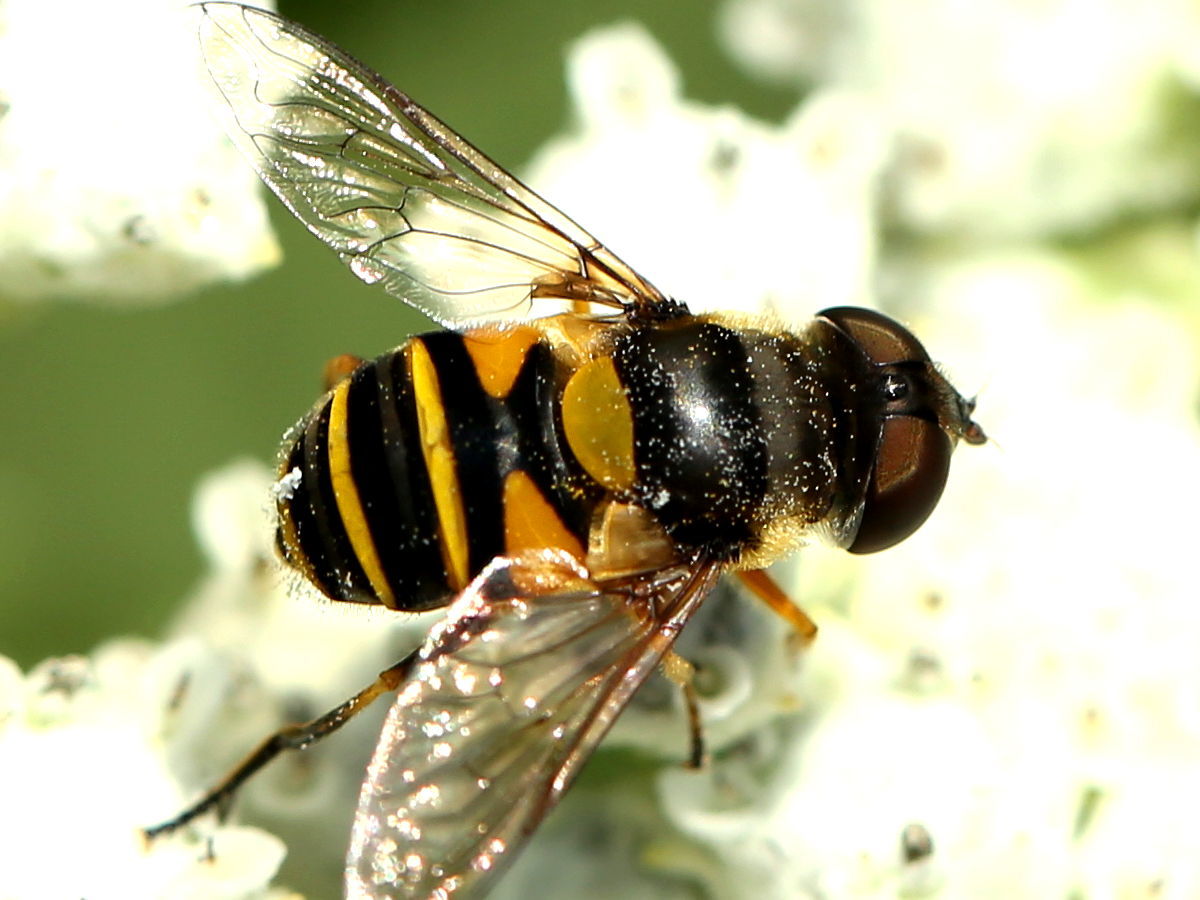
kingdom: Animalia
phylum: Arthropoda
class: Insecta
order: Diptera
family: Syrphidae
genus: Eristalis
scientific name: Eristalis transversa
